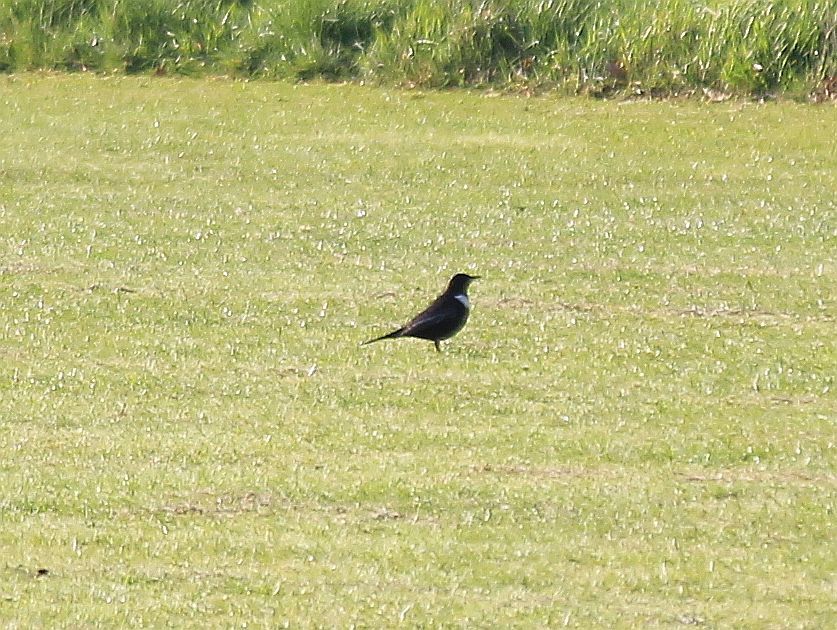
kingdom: Animalia
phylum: Chordata
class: Aves
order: Passeriformes
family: Turdidae
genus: Turdus
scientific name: Turdus torquatus
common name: Ring ouzel
